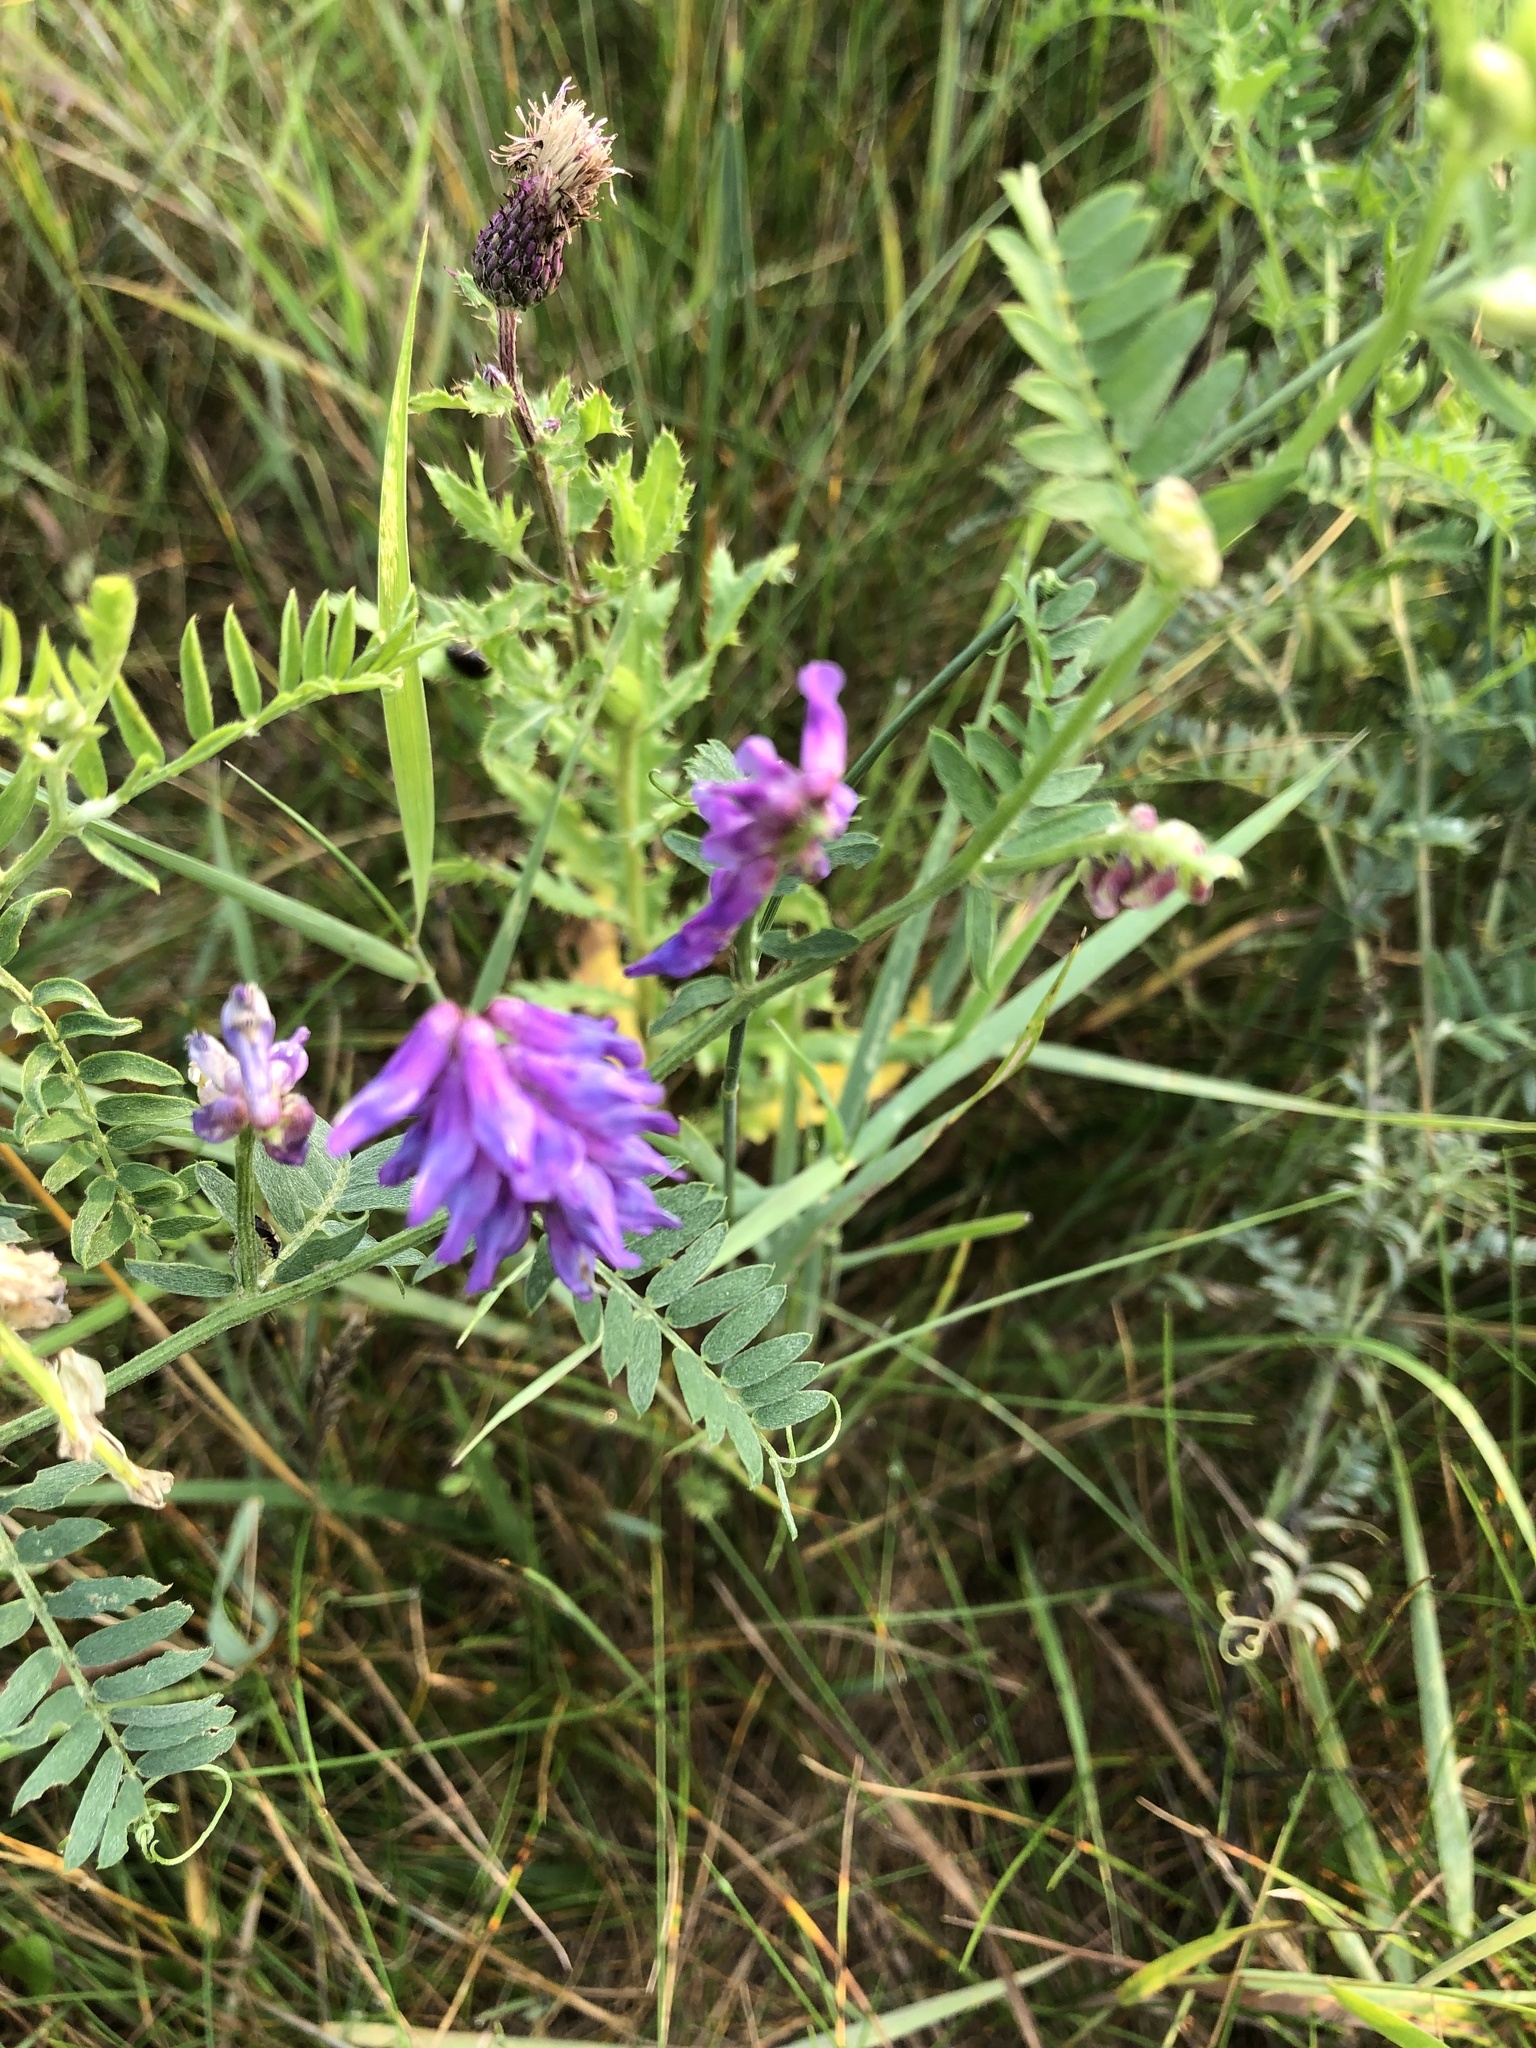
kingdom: Plantae
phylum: Tracheophyta
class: Magnoliopsida
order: Fabales
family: Fabaceae
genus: Vicia
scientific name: Vicia cracca
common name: Bird vetch
